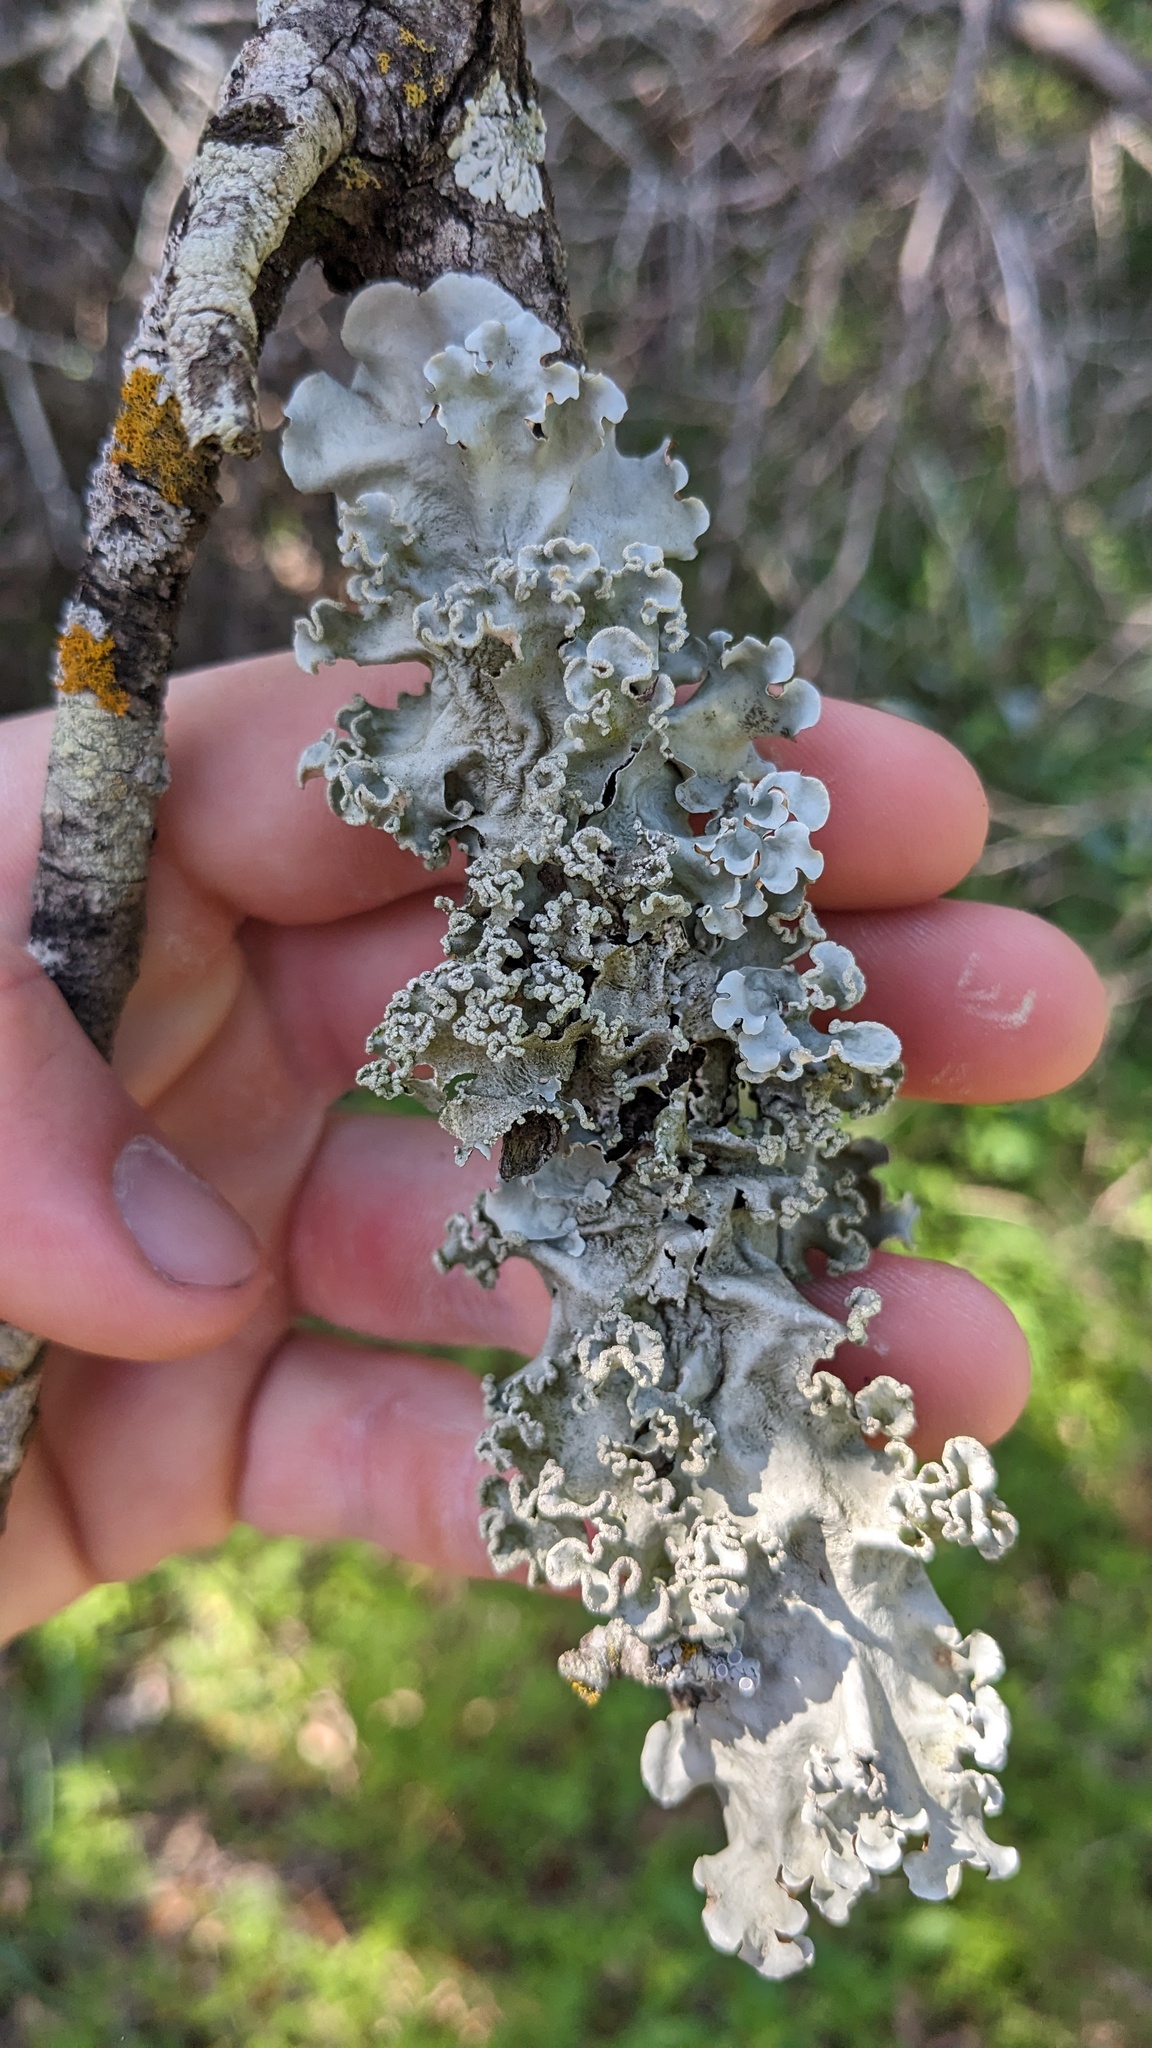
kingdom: Fungi
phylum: Ascomycota
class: Lecanoromycetes
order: Lecanorales
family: Parmeliaceae
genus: Parmotrema
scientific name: Parmotrema austrosinense
